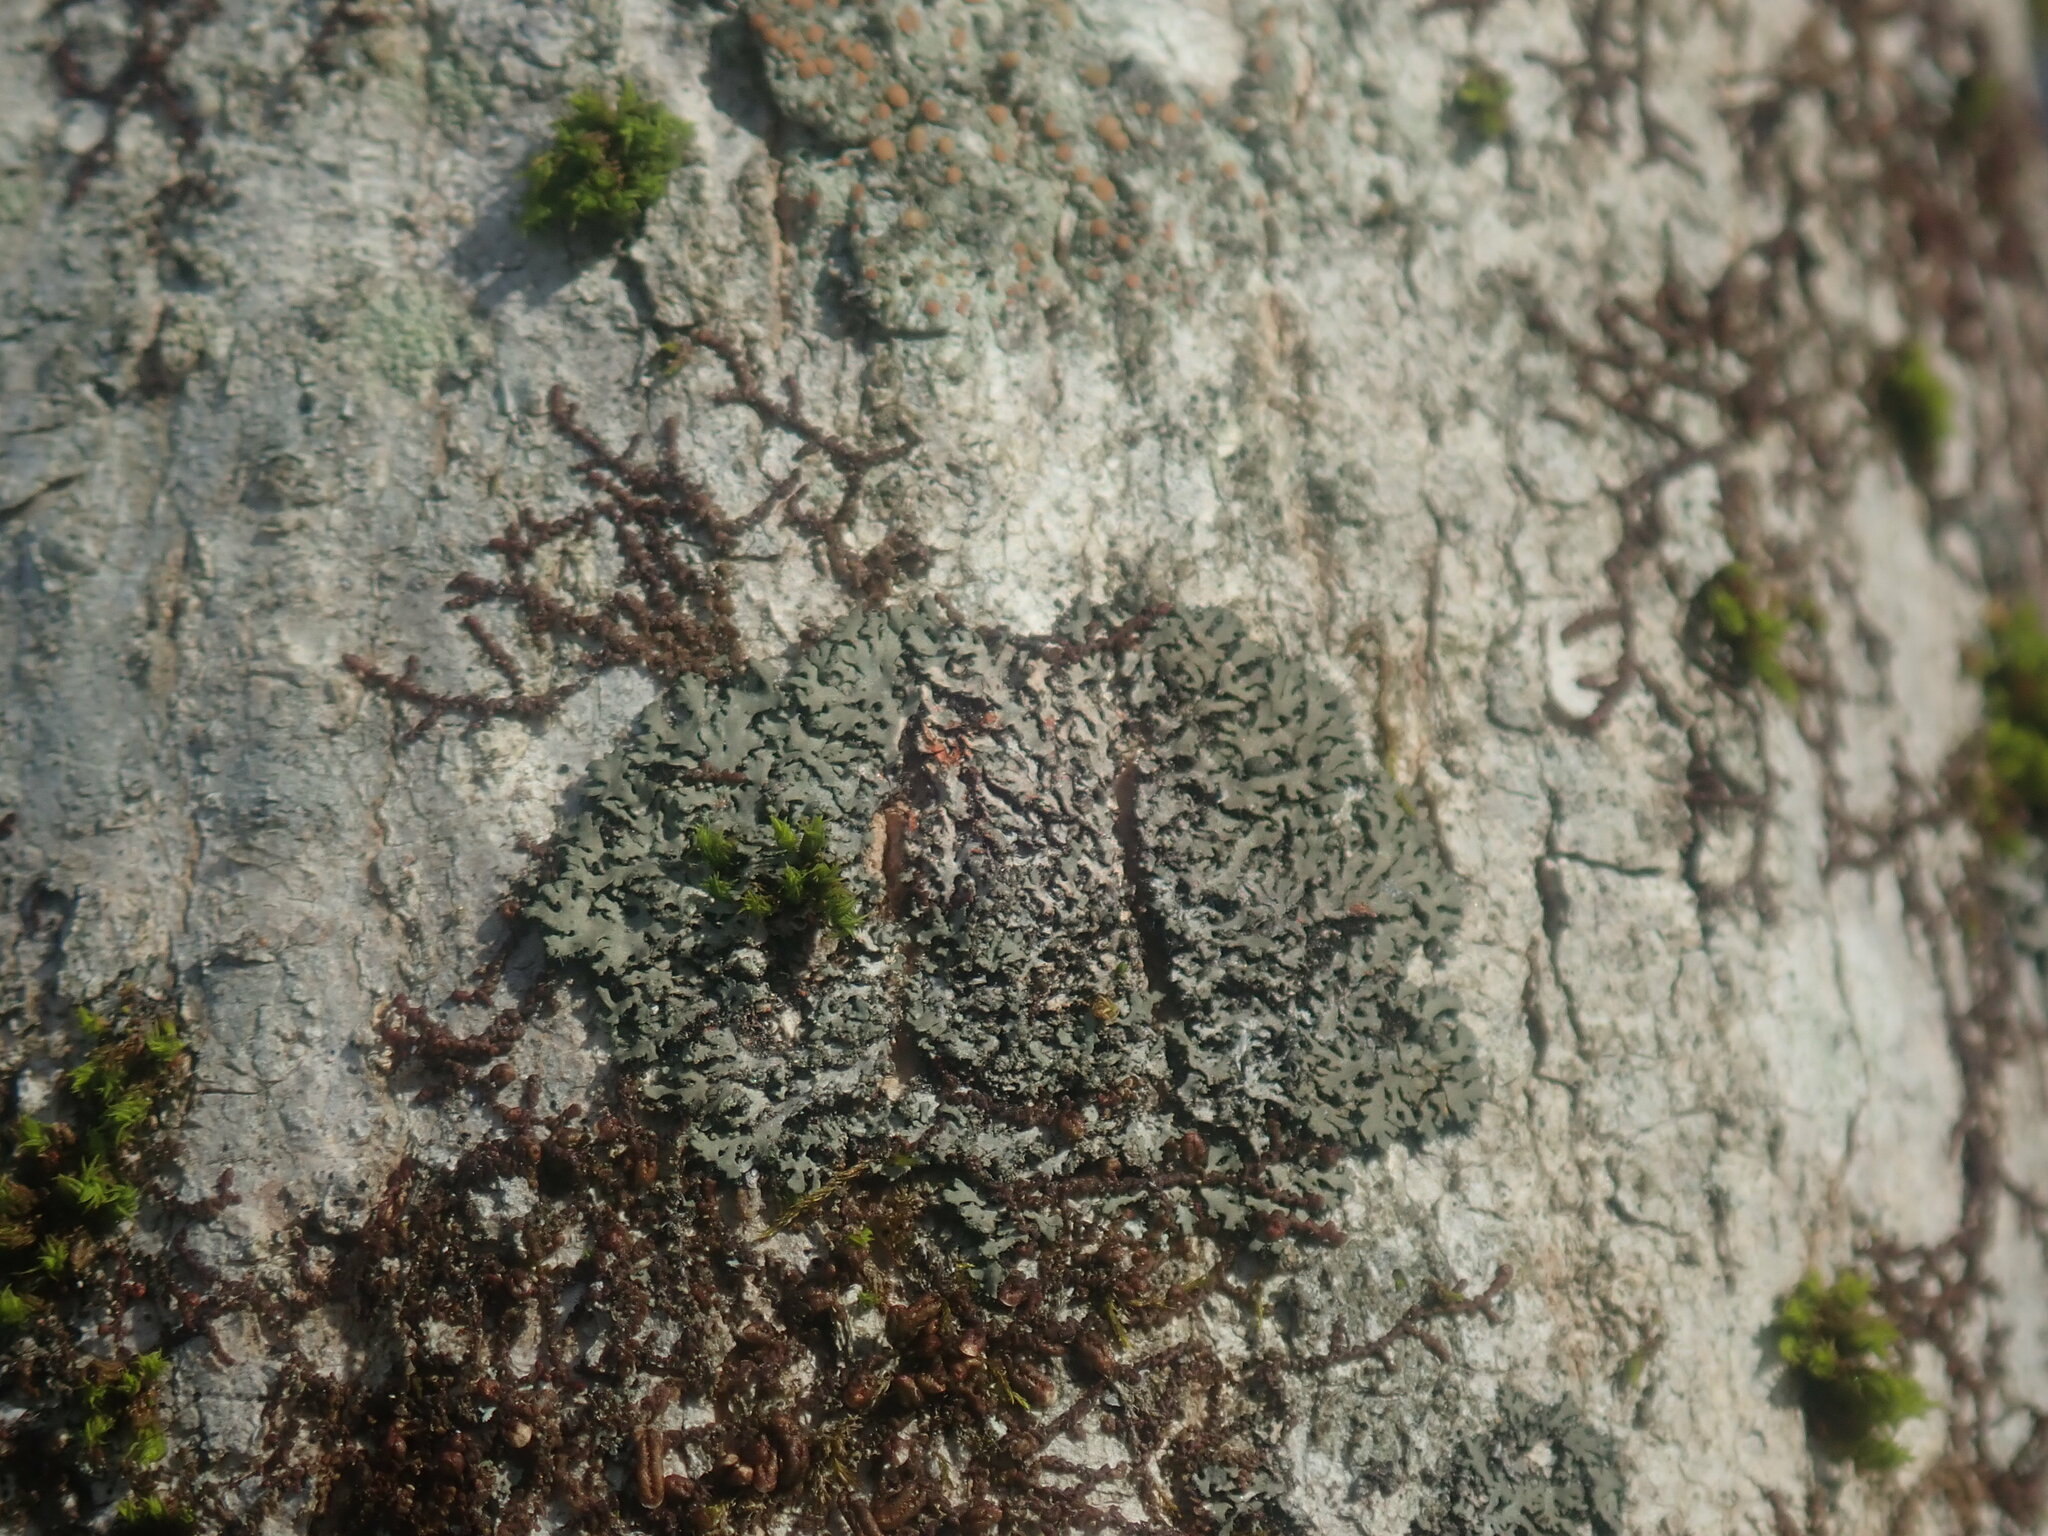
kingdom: Fungi
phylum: Ascomycota
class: Lecanoromycetes
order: Caliciales
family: Physciaceae
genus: Phaeophyscia
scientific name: Phaeophyscia rubropulchra
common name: Orange-cored shadow lichen
